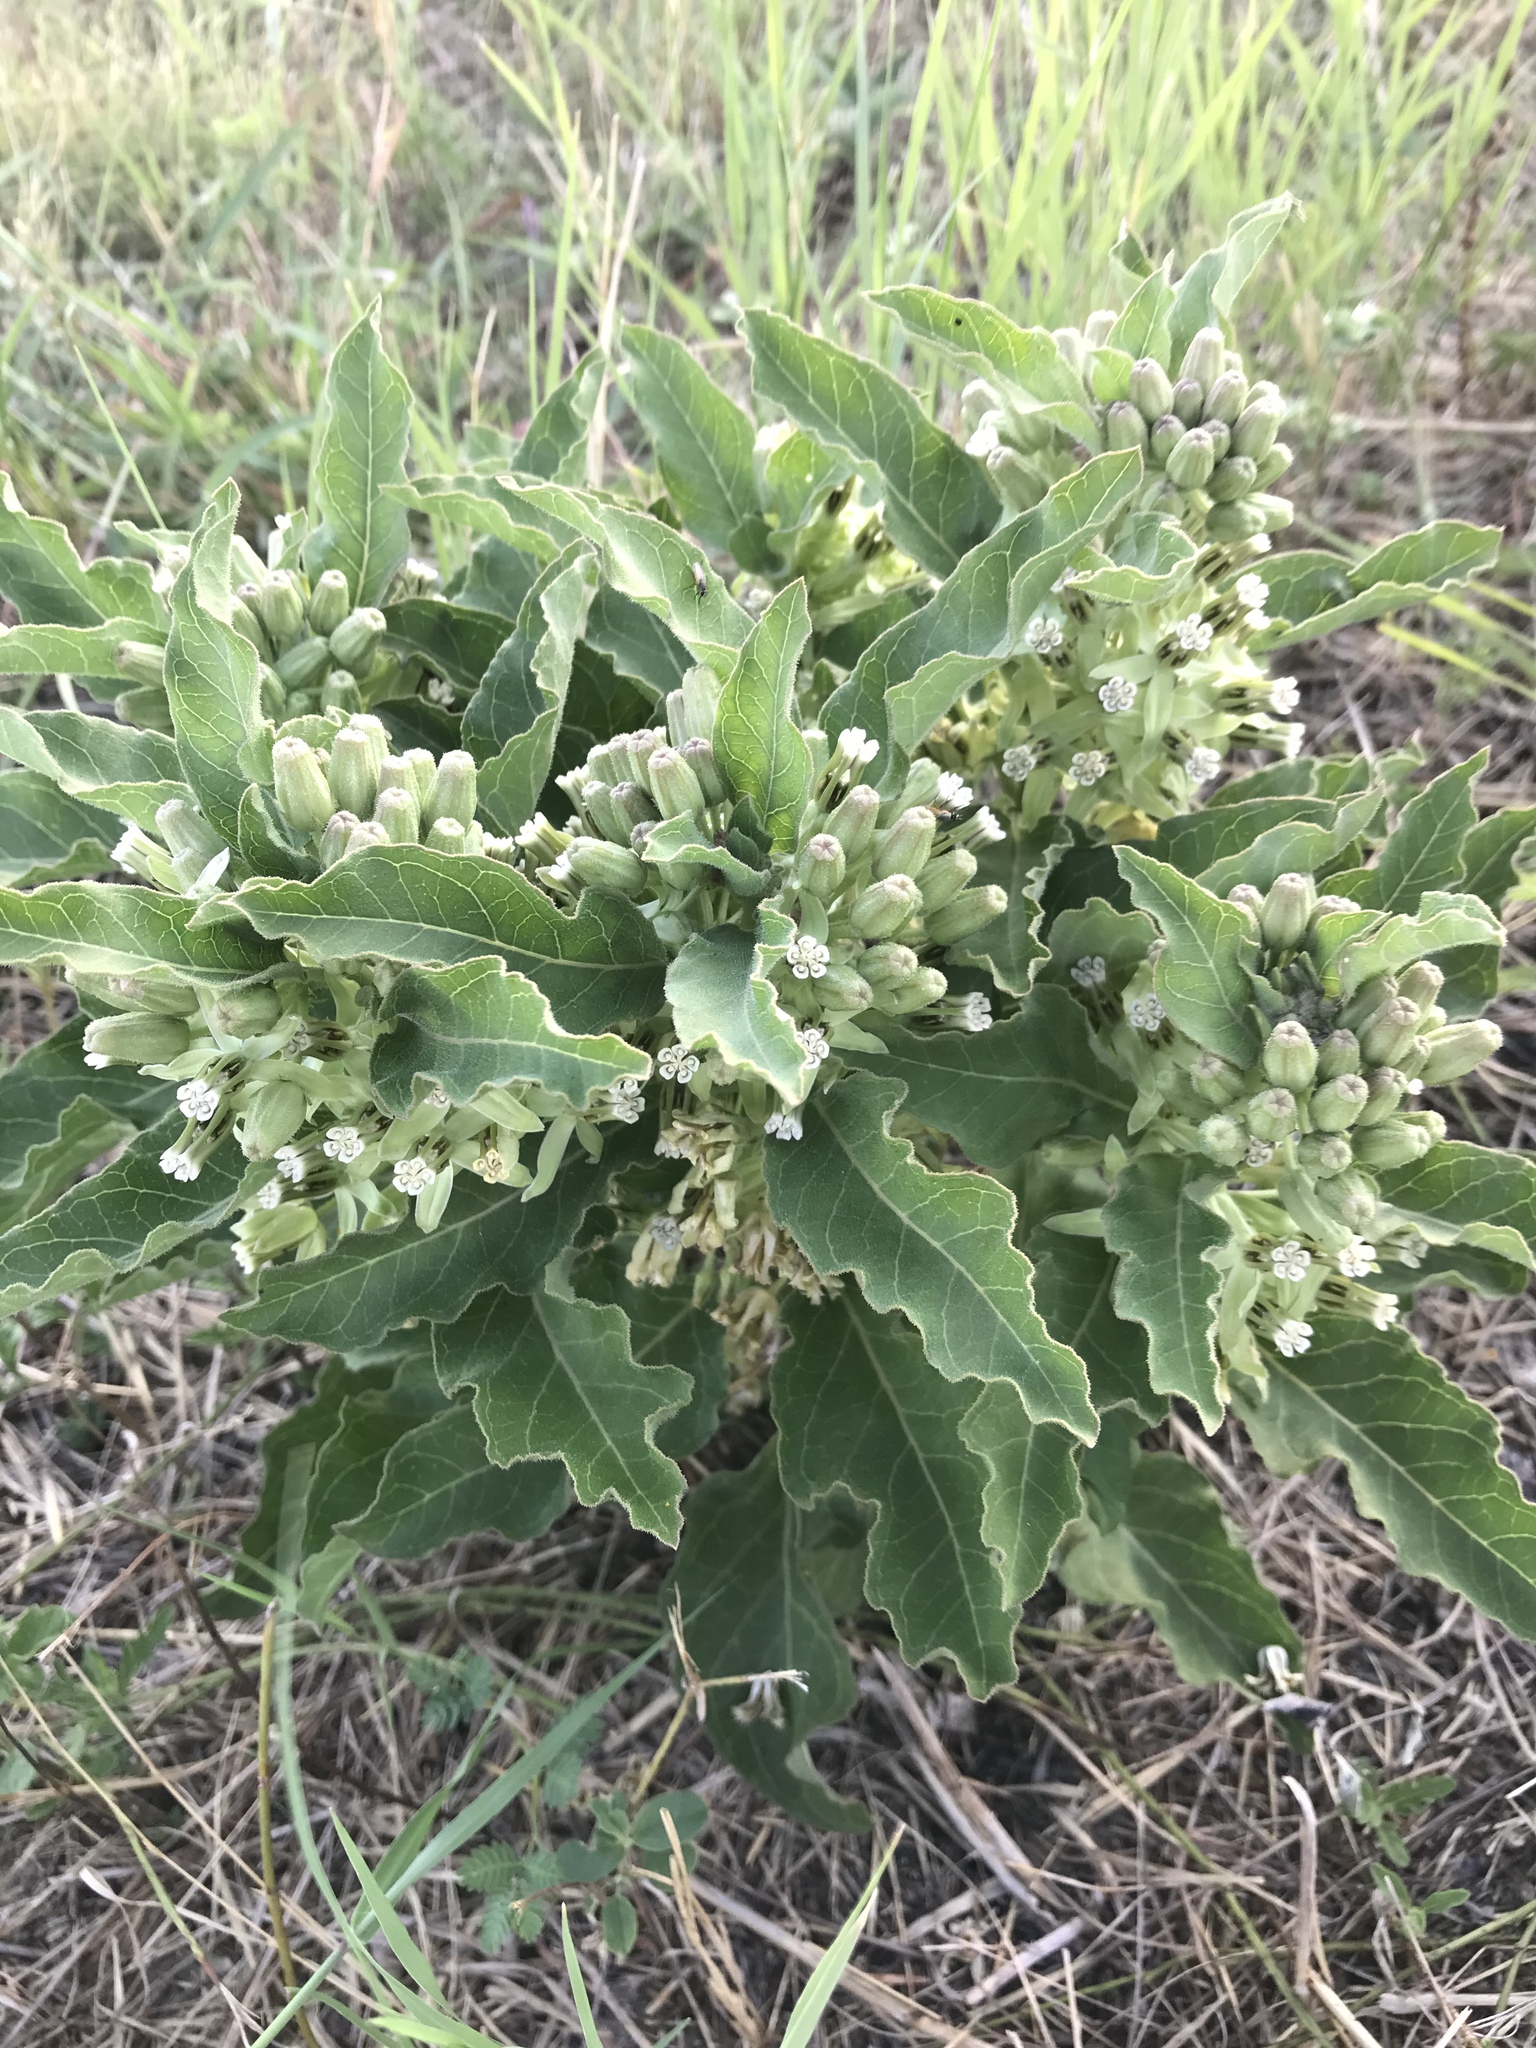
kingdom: Plantae
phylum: Tracheophyta
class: Magnoliopsida
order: Gentianales
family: Apocynaceae
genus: Asclepias
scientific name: Asclepias oenotheroides
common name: Zizotes milkweed
